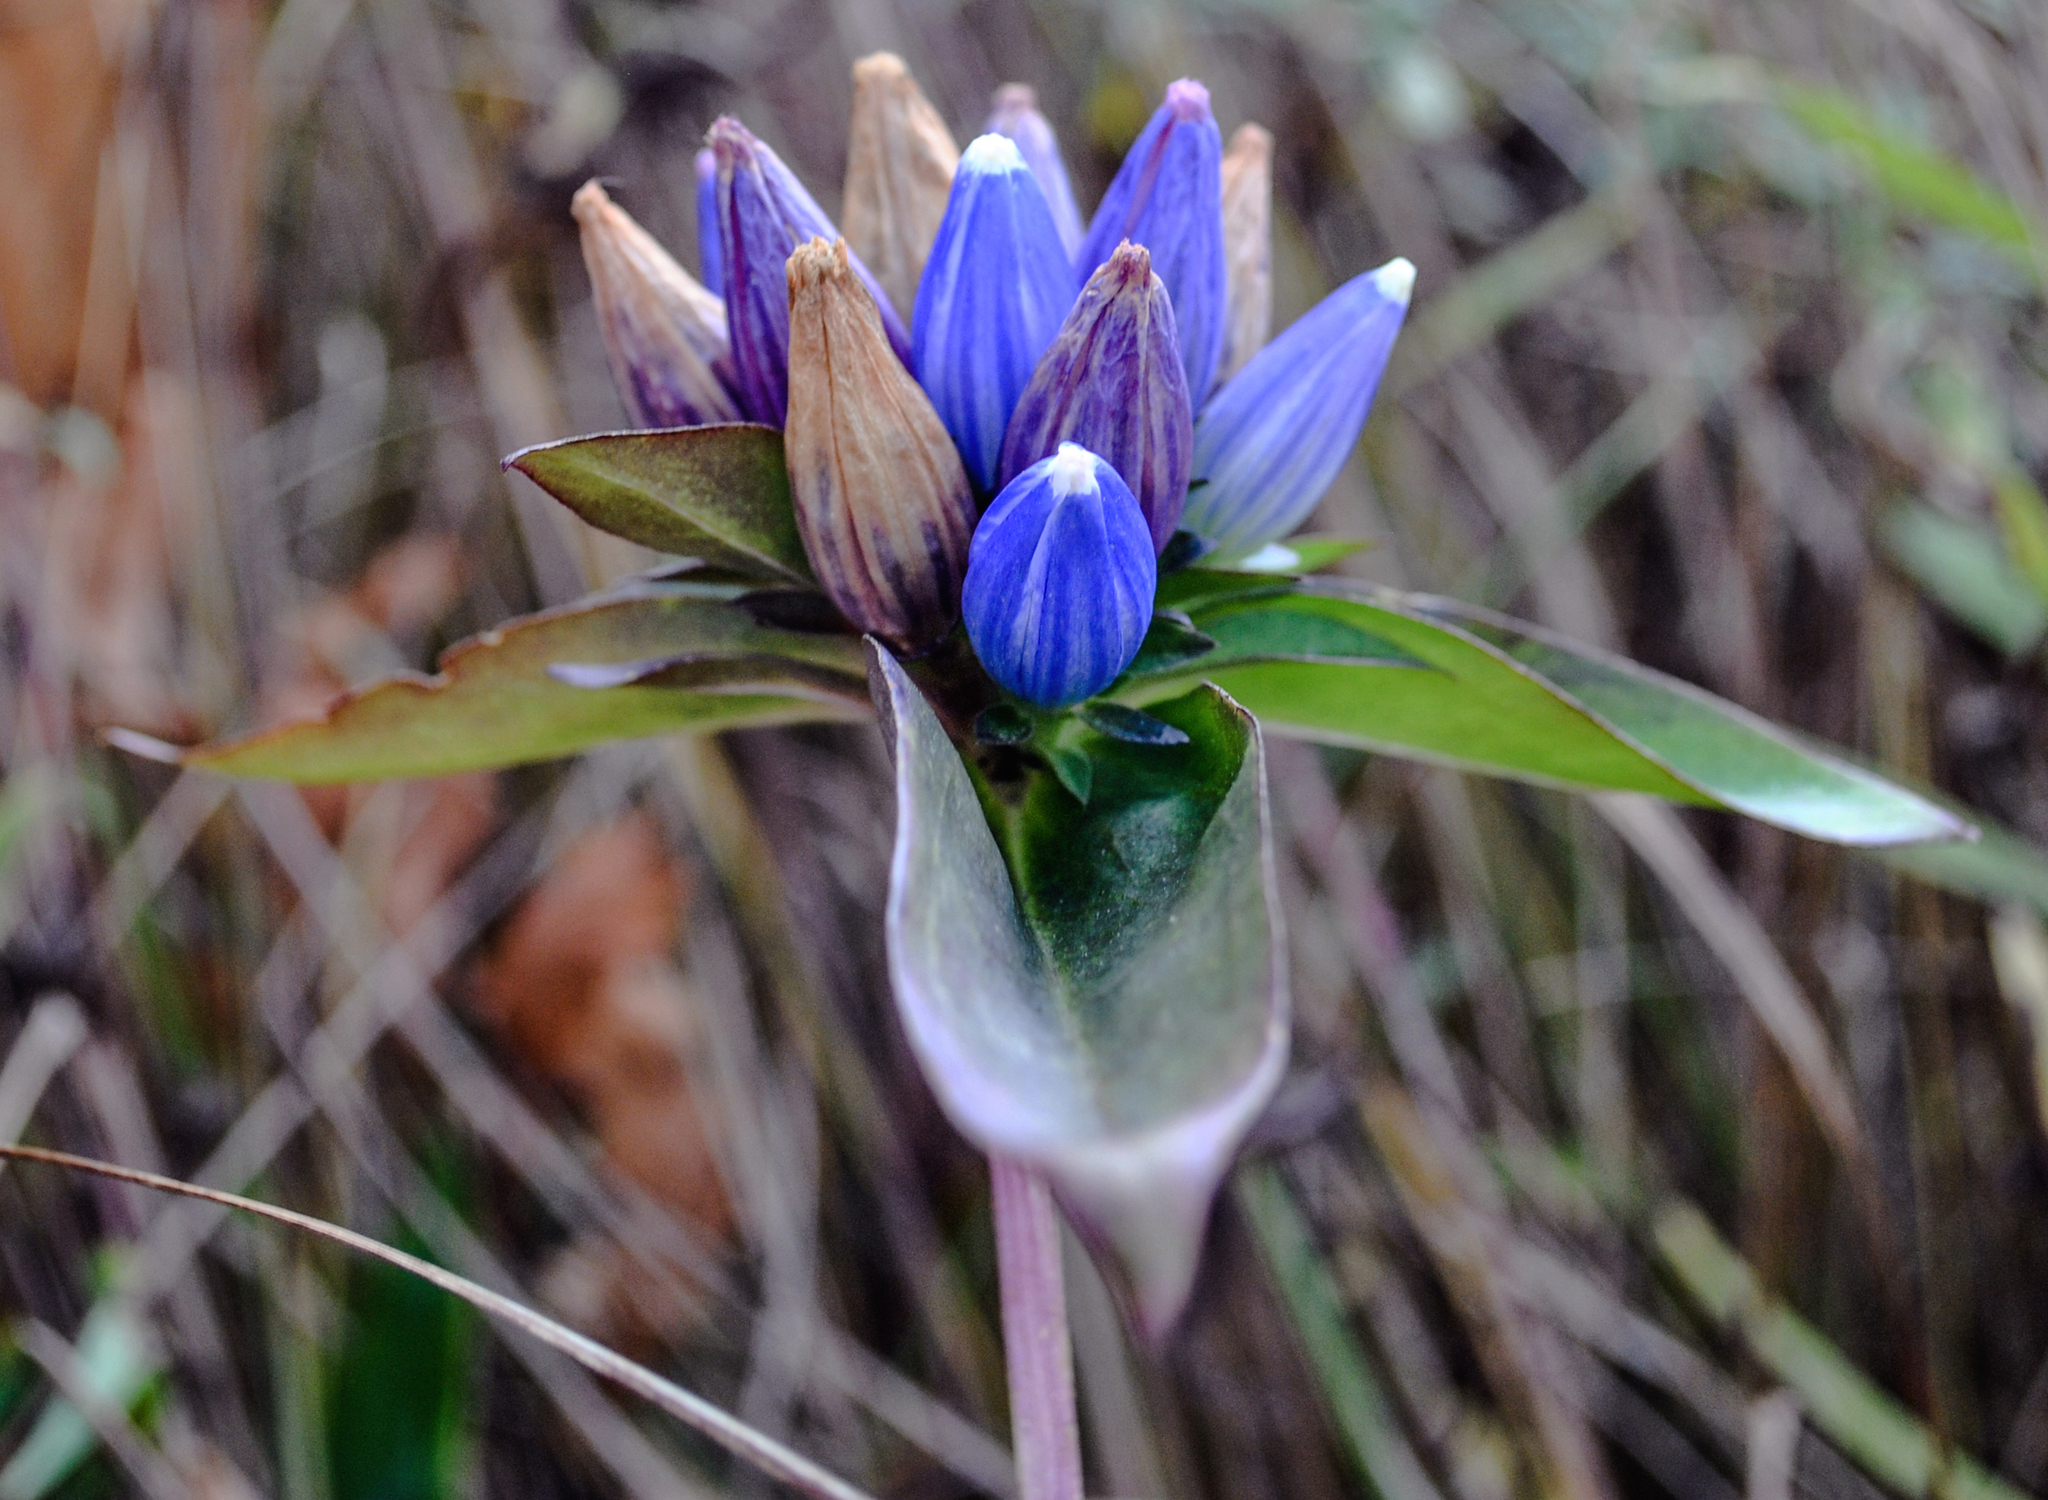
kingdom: Plantae
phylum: Tracheophyta
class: Magnoliopsida
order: Gentianales
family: Gentianaceae
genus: Gentiana
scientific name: Gentiana andrewsii
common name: Bottle gentian
